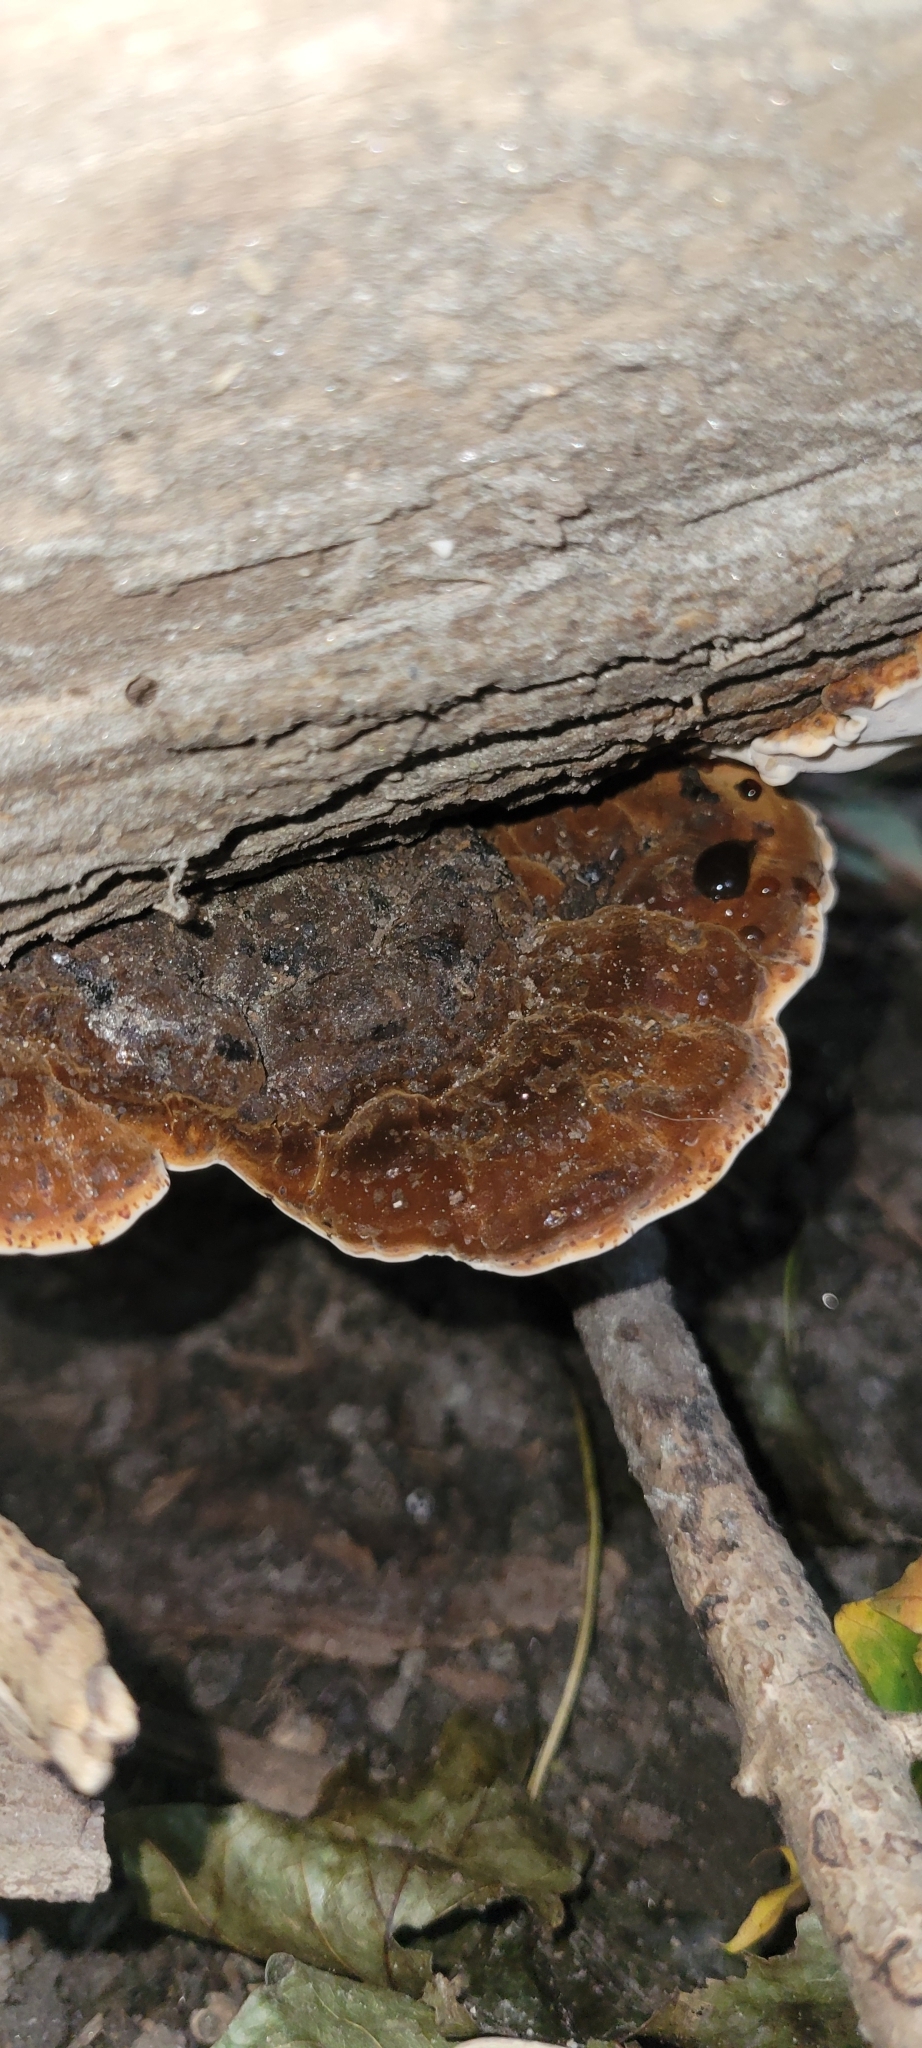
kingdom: Fungi
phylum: Basidiomycota
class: Agaricomycetes
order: Polyporales
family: Ischnodermataceae
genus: Ischnoderma
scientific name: Ischnoderma resinosum
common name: Resinous polypore
